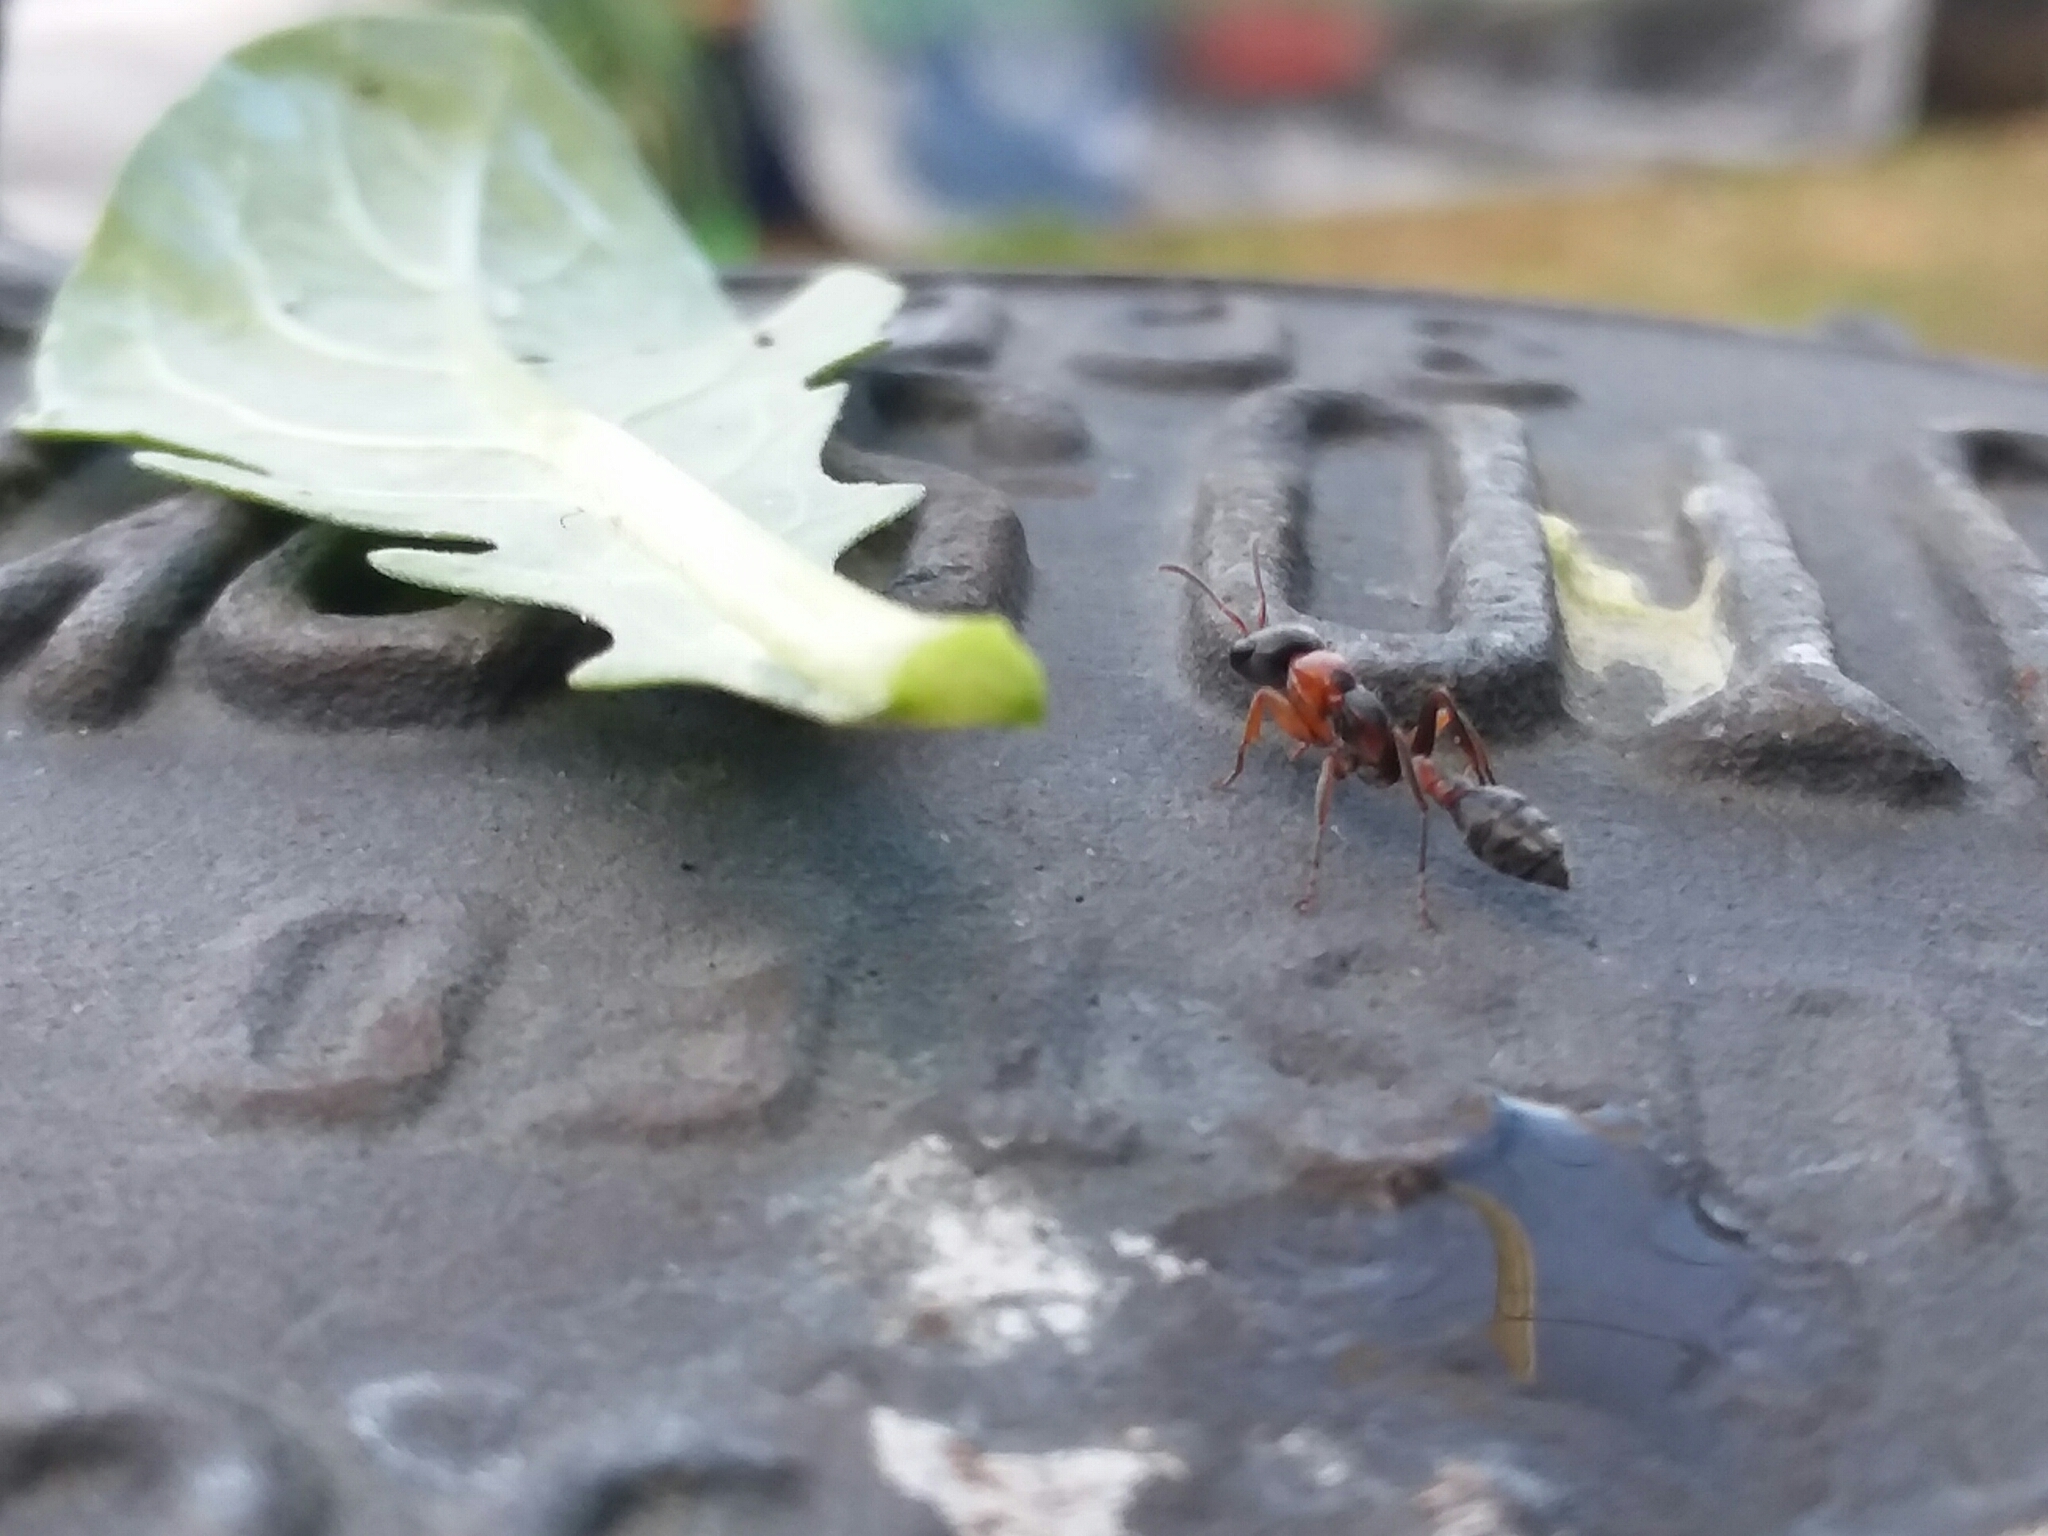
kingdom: Animalia
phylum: Arthropoda
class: Insecta
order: Hymenoptera
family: Formicidae
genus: Pseudomyrmex
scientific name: Pseudomyrmex gracilis
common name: Graceful twig ant
